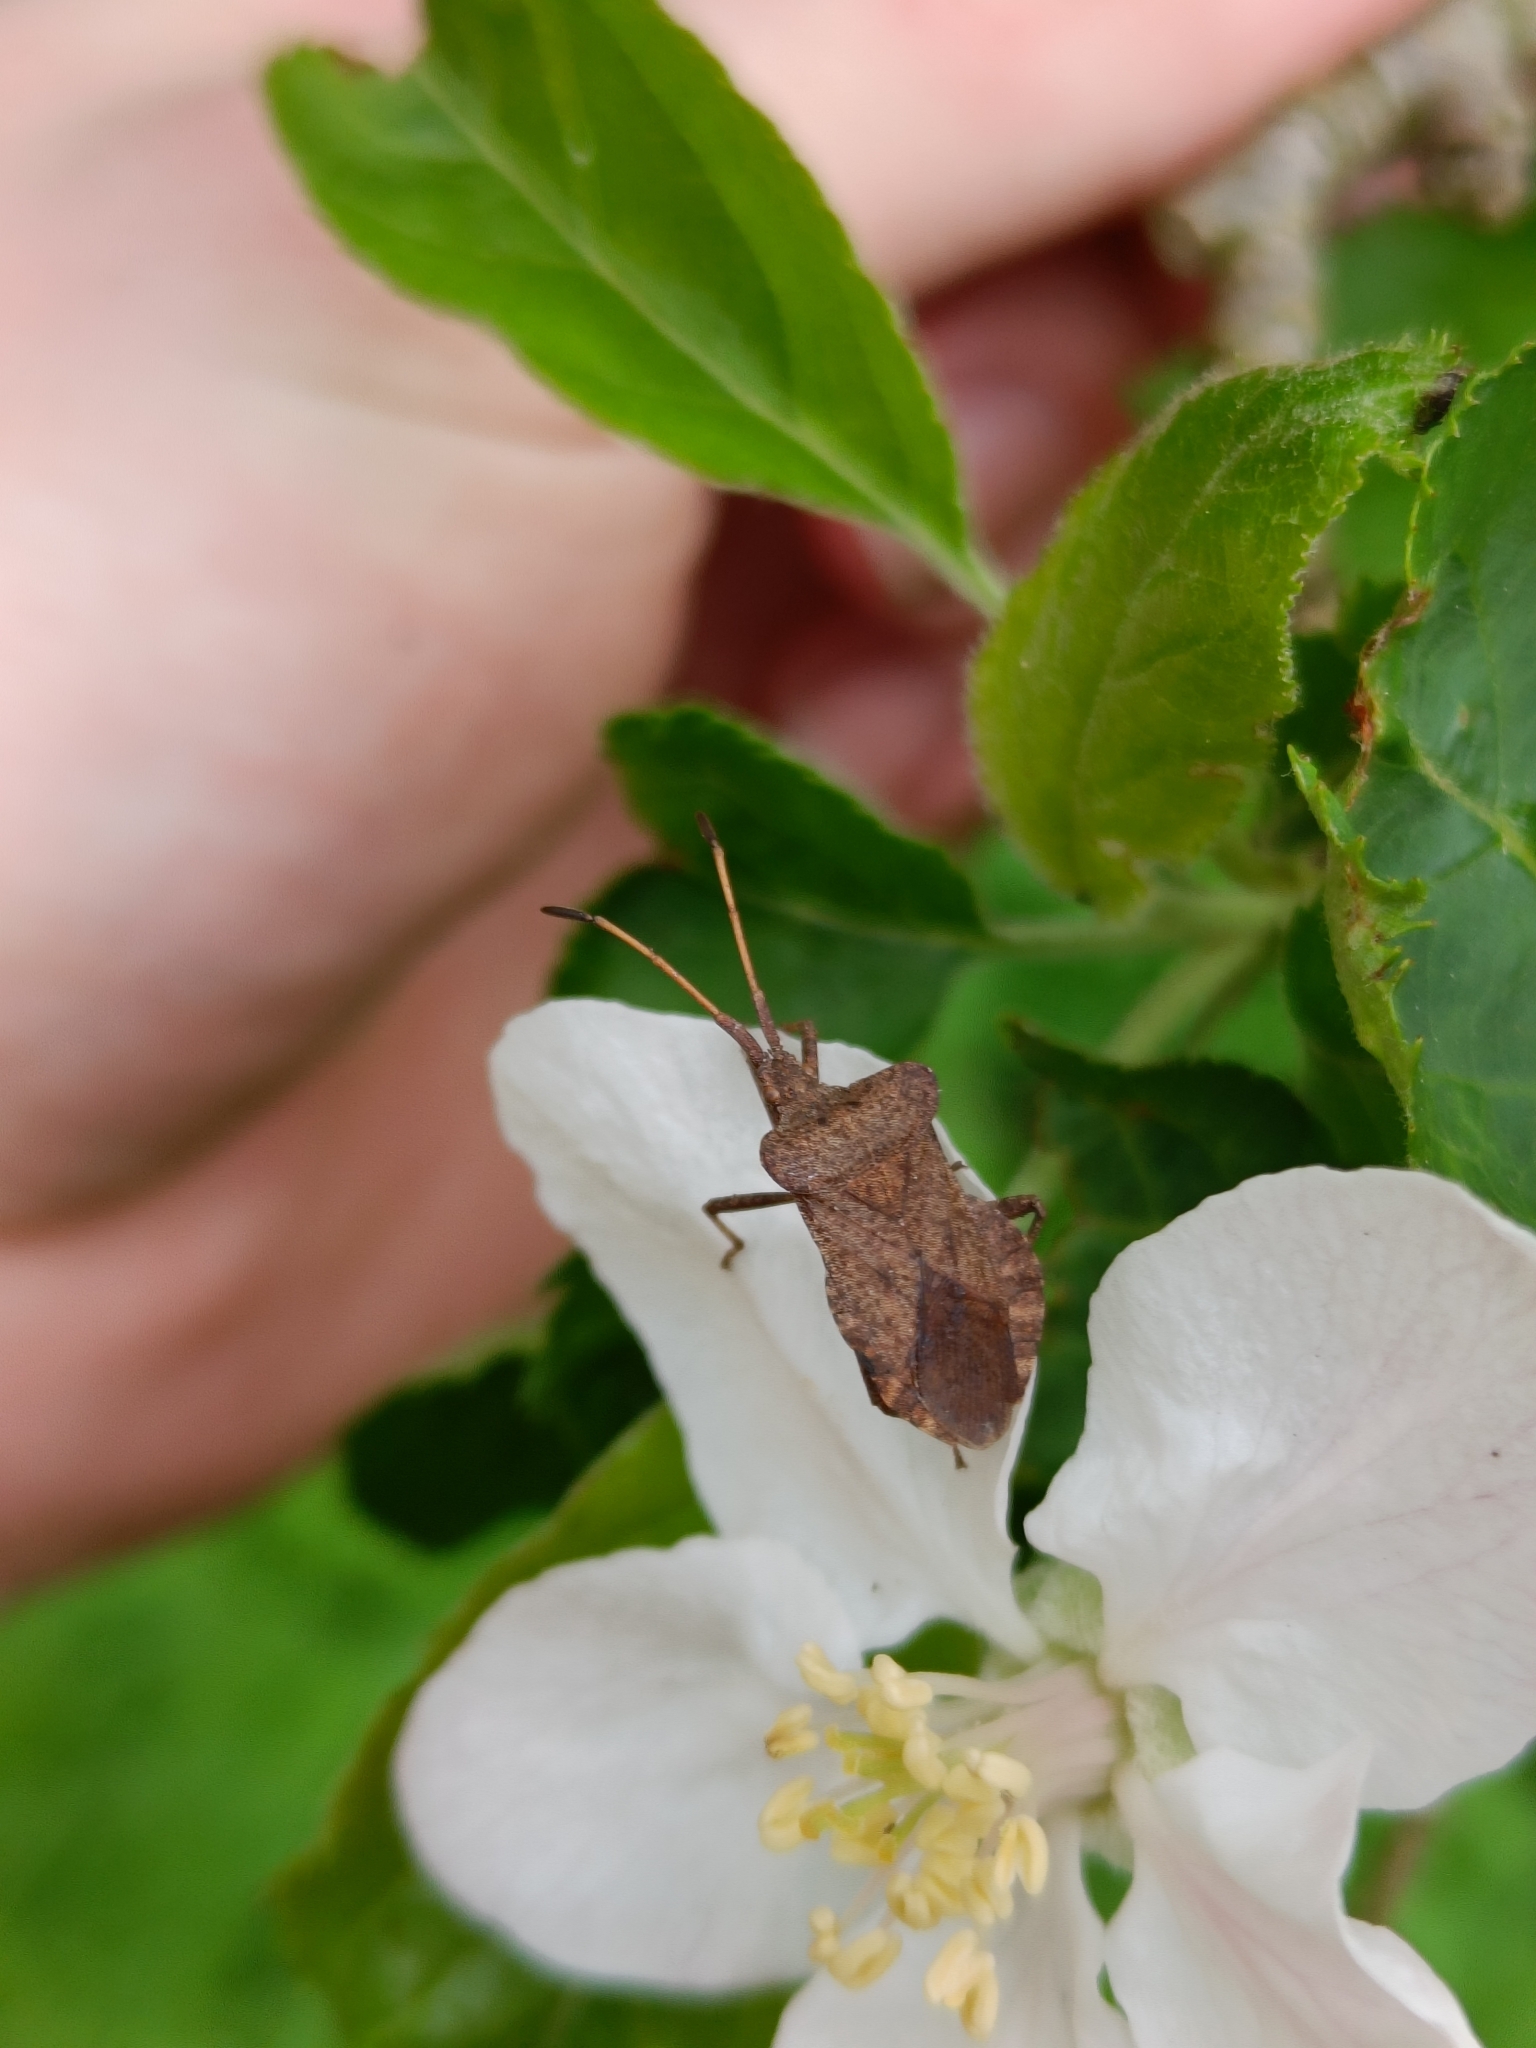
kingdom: Animalia
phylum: Arthropoda
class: Insecta
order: Hemiptera
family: Coreidae
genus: Coreus
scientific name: Coreus marginatus
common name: Dock bug
